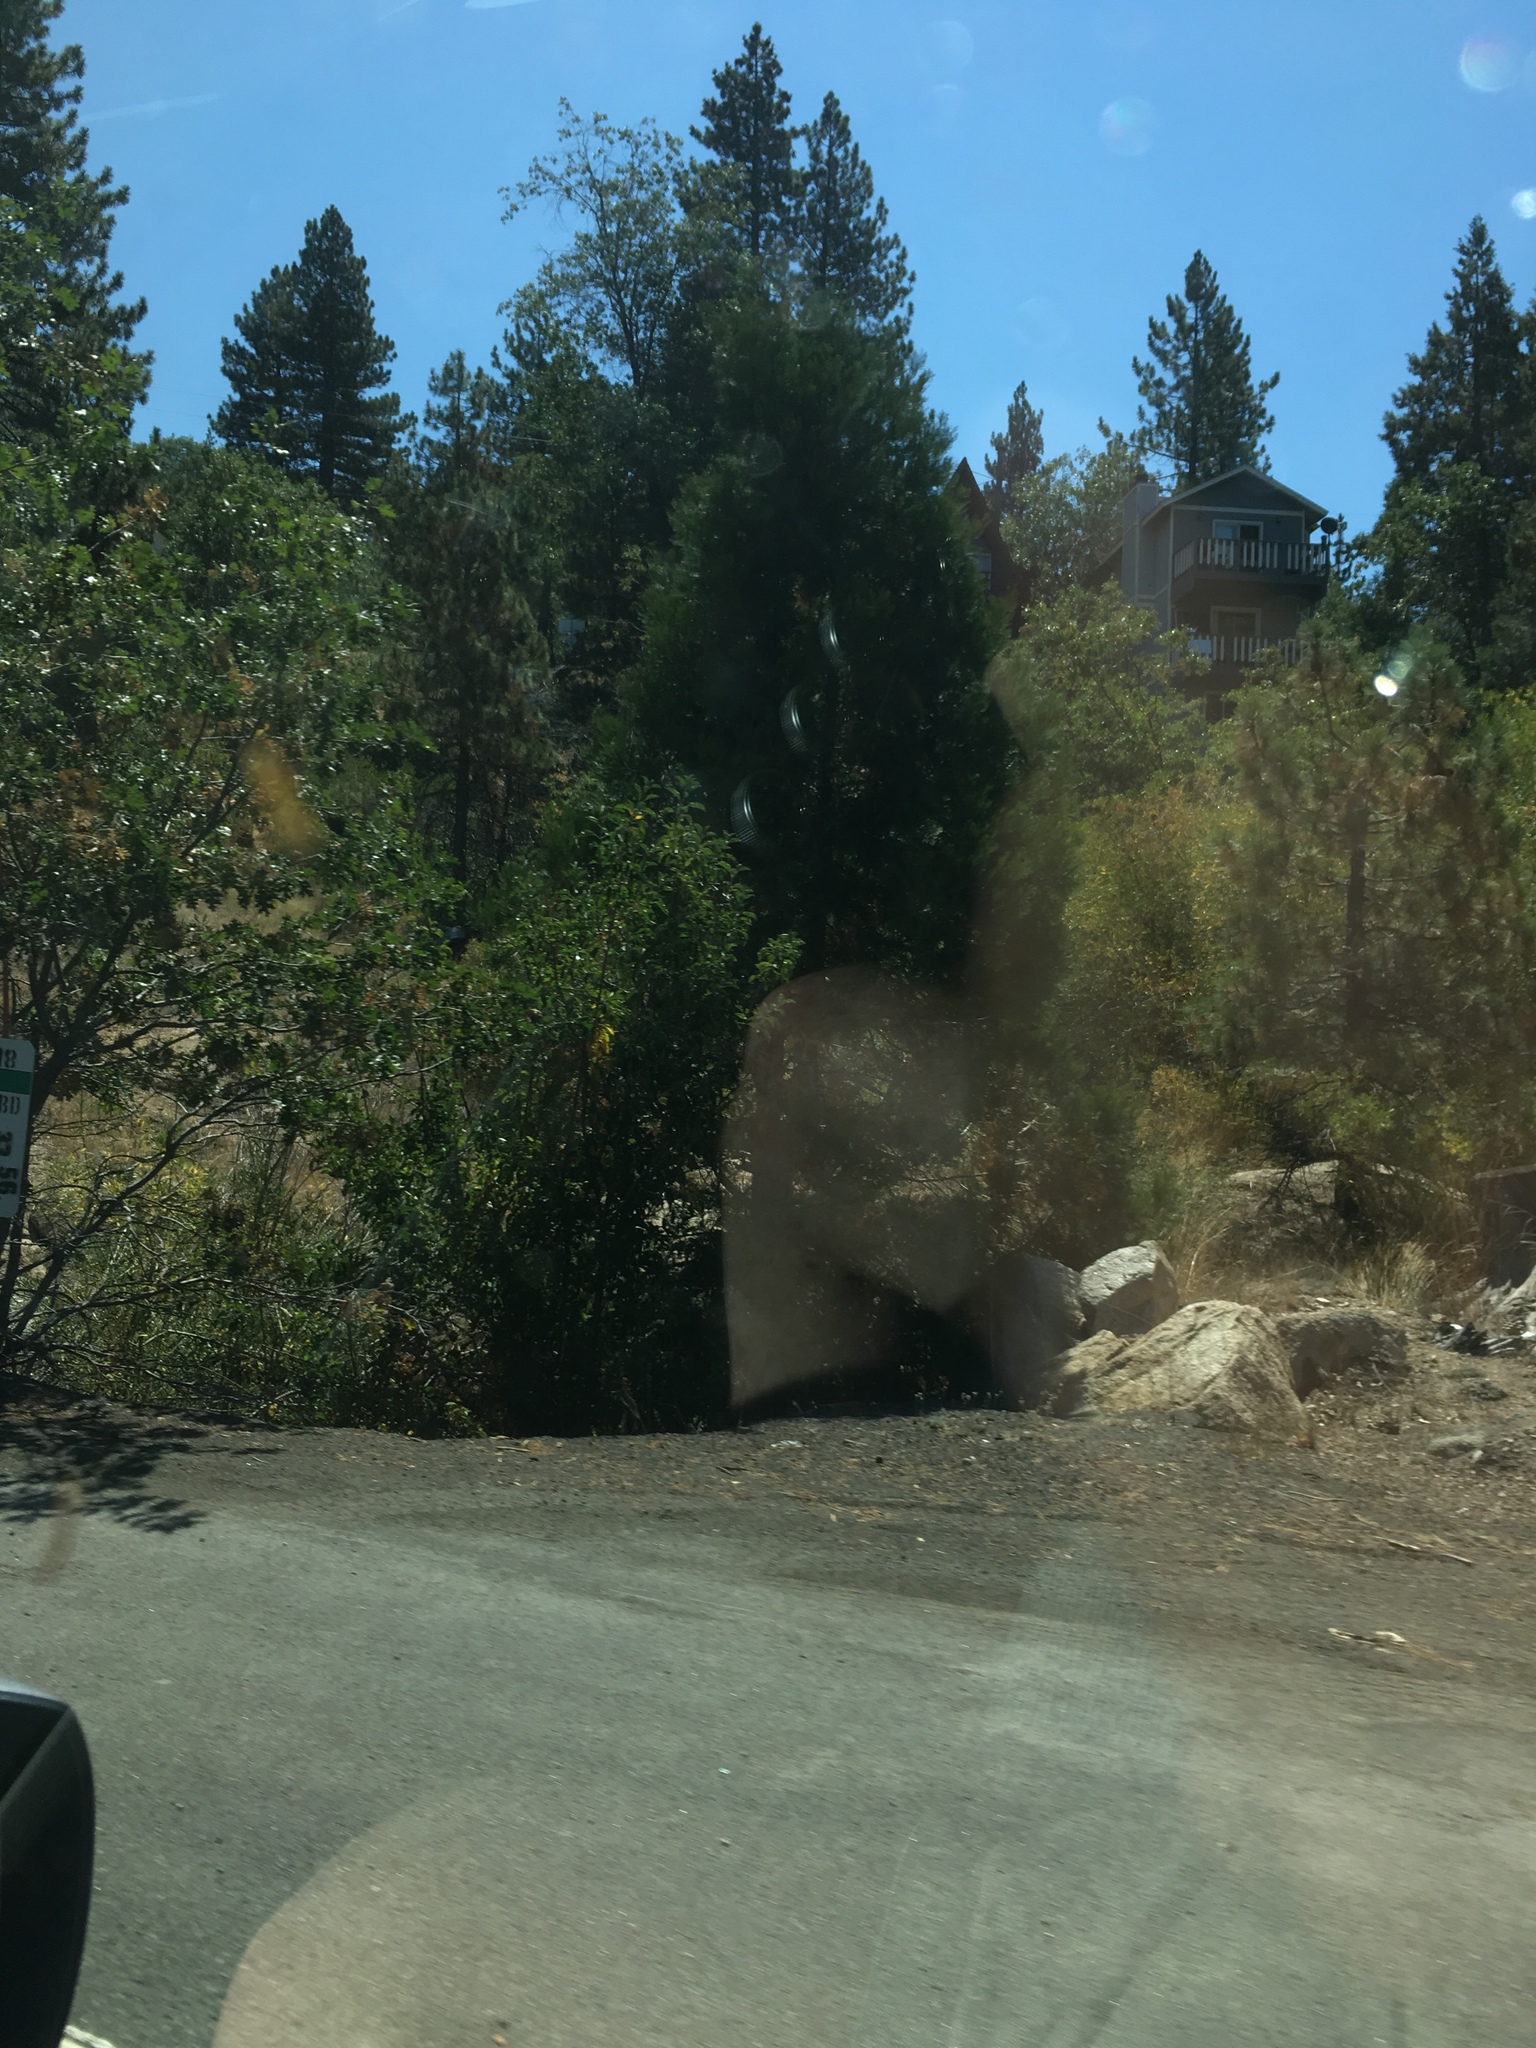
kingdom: Plantae
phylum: Tracheophyta
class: Pinopsida
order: Pinales
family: Cupressaceae
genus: Calocedrus
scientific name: Calocedrus decurrens
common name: Californian incense-cedar
